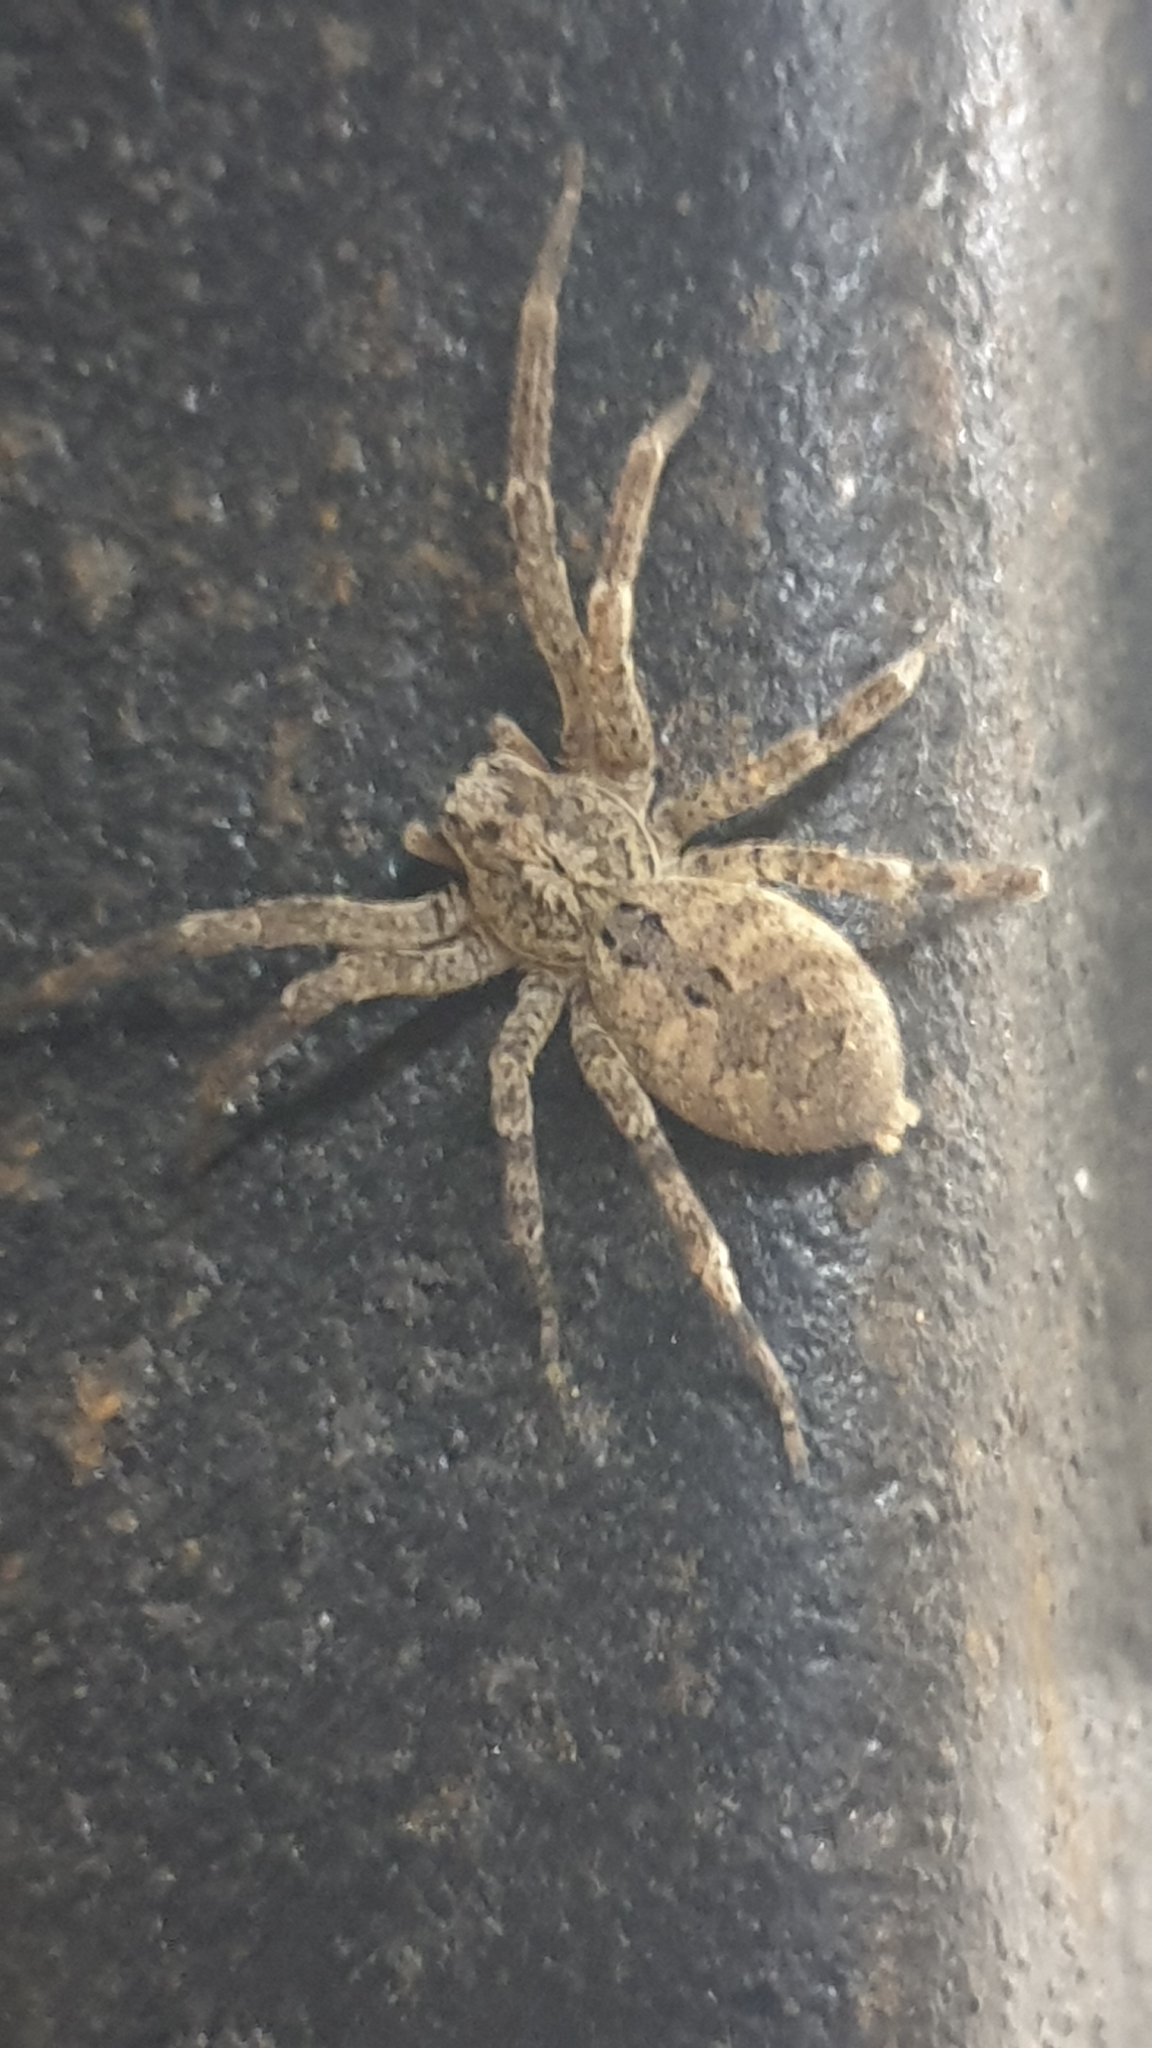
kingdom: Animalia
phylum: Arthropoda
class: Arachnida
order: Araneae
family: Zoropsidae
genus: Zoropsis
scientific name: Zoropsis spinimana
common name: Zoropsid spider
